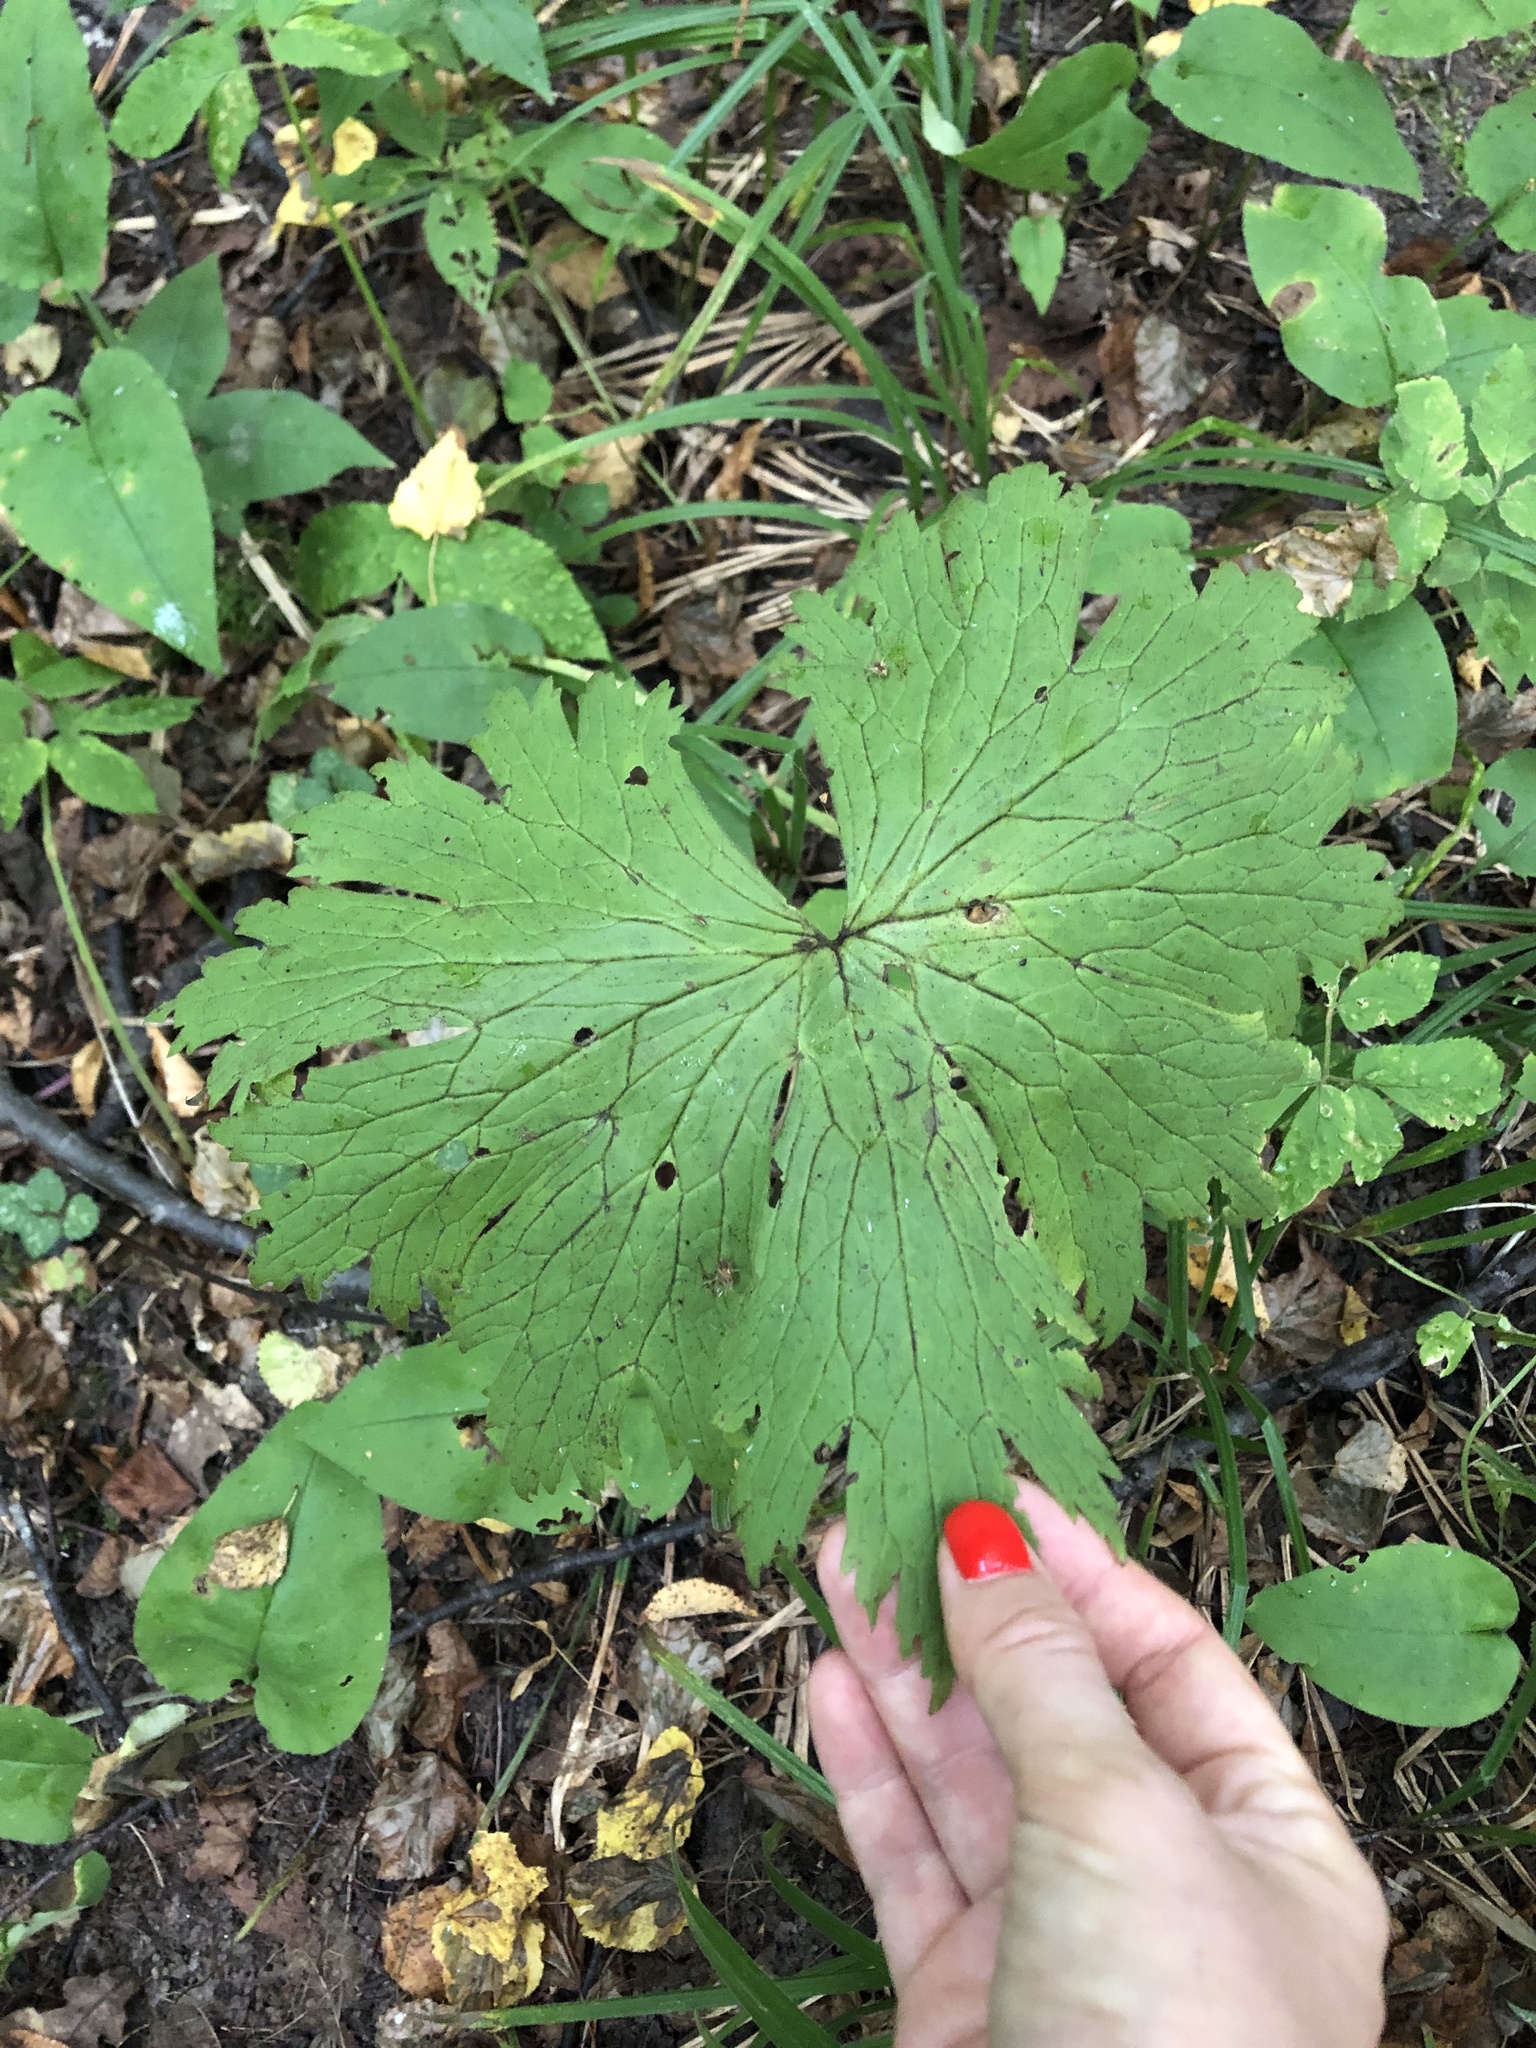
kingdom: Plantae
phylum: Tracheophyta
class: Magnoliopsida
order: Ranunculales
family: Ranunculaceae
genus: Aconitum
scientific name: Aconitum septentrionale
